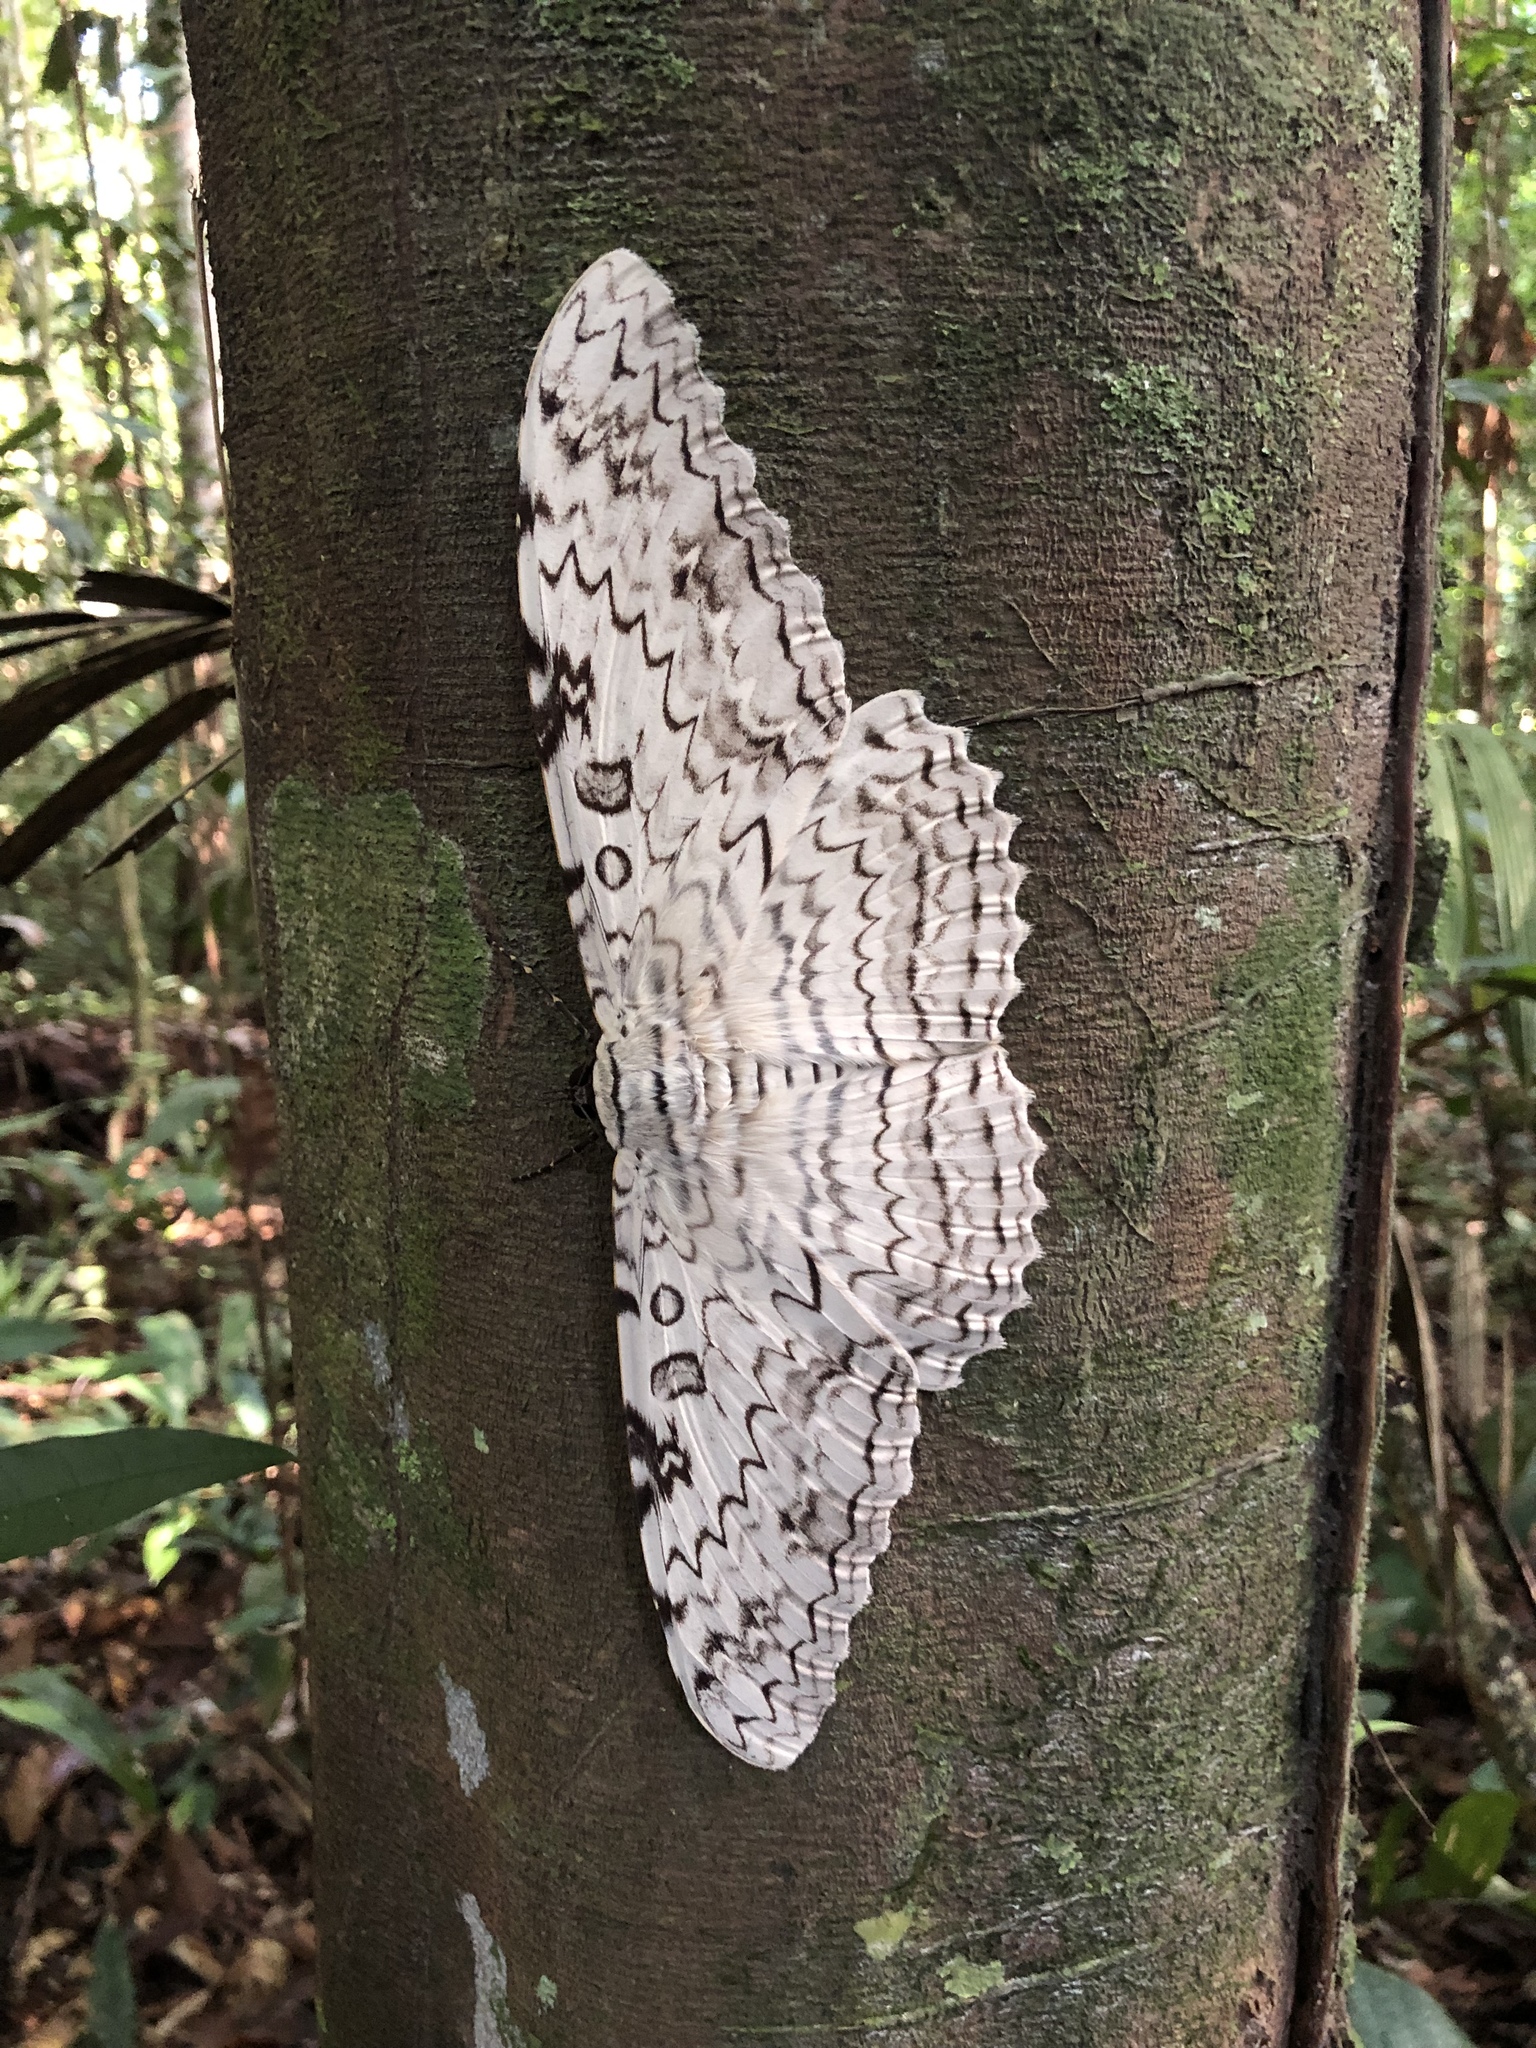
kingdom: Animalia
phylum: Arthropoda
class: Insecta
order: Lepidoptera
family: Erebidae
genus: Thysania
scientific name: Thysania agrippina
